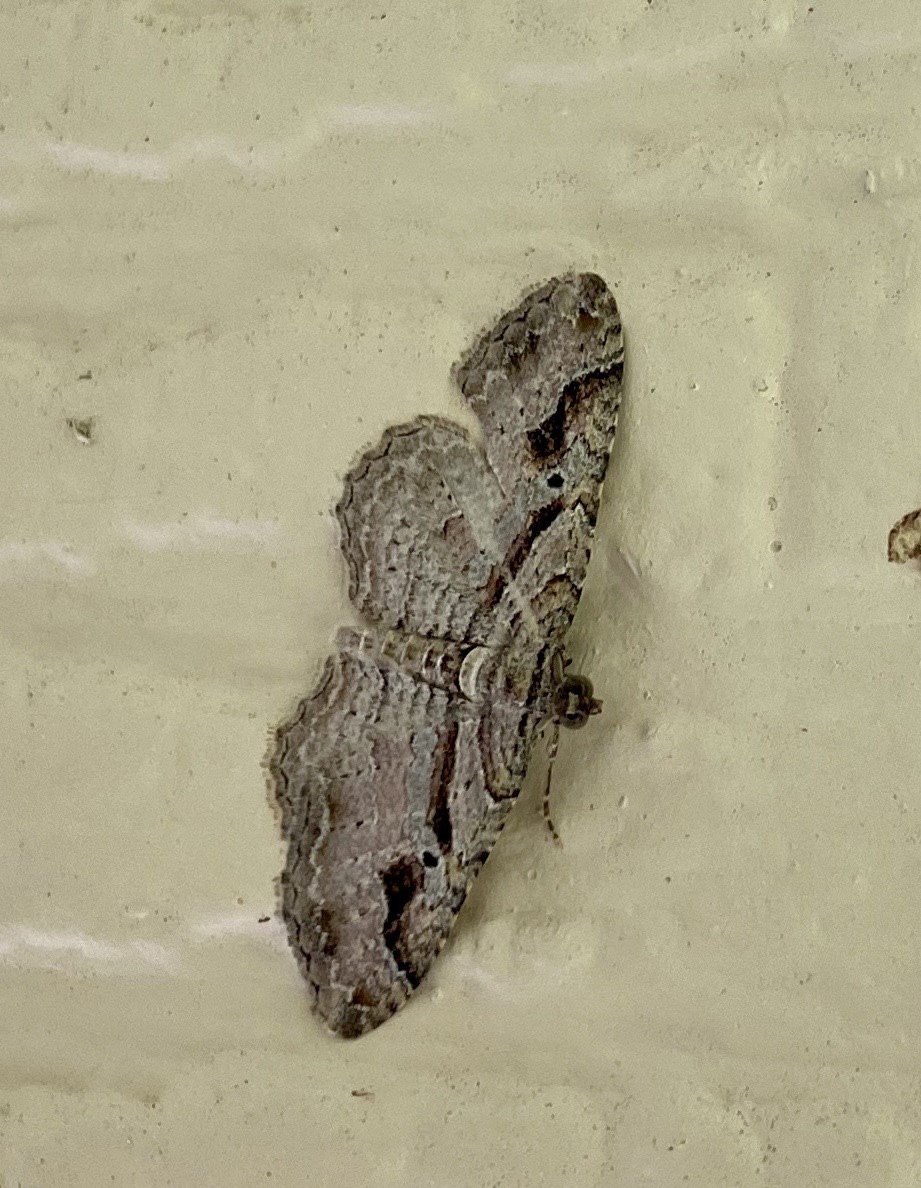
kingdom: Animalia
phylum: Arthropoda
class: Insecta
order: Lepidoptera
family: Geometridae
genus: Costaconvexa
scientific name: Costaconvexa centrostrigaria
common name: Bent-line carpet
